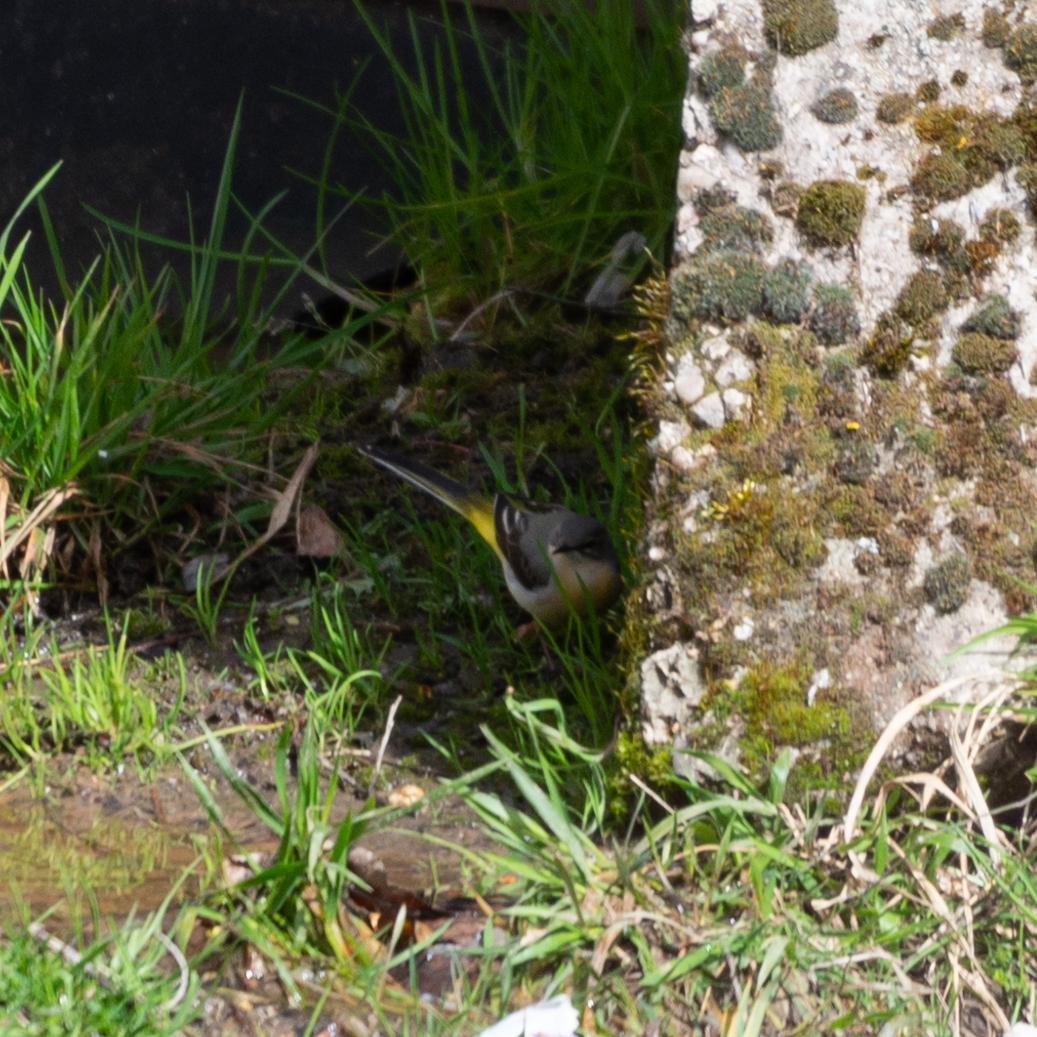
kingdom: Animalia
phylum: Chordata
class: Aves
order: Passeriformes
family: Motacillidae
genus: Motacilla
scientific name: Motacilla cinerea
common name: Grey wagtail
